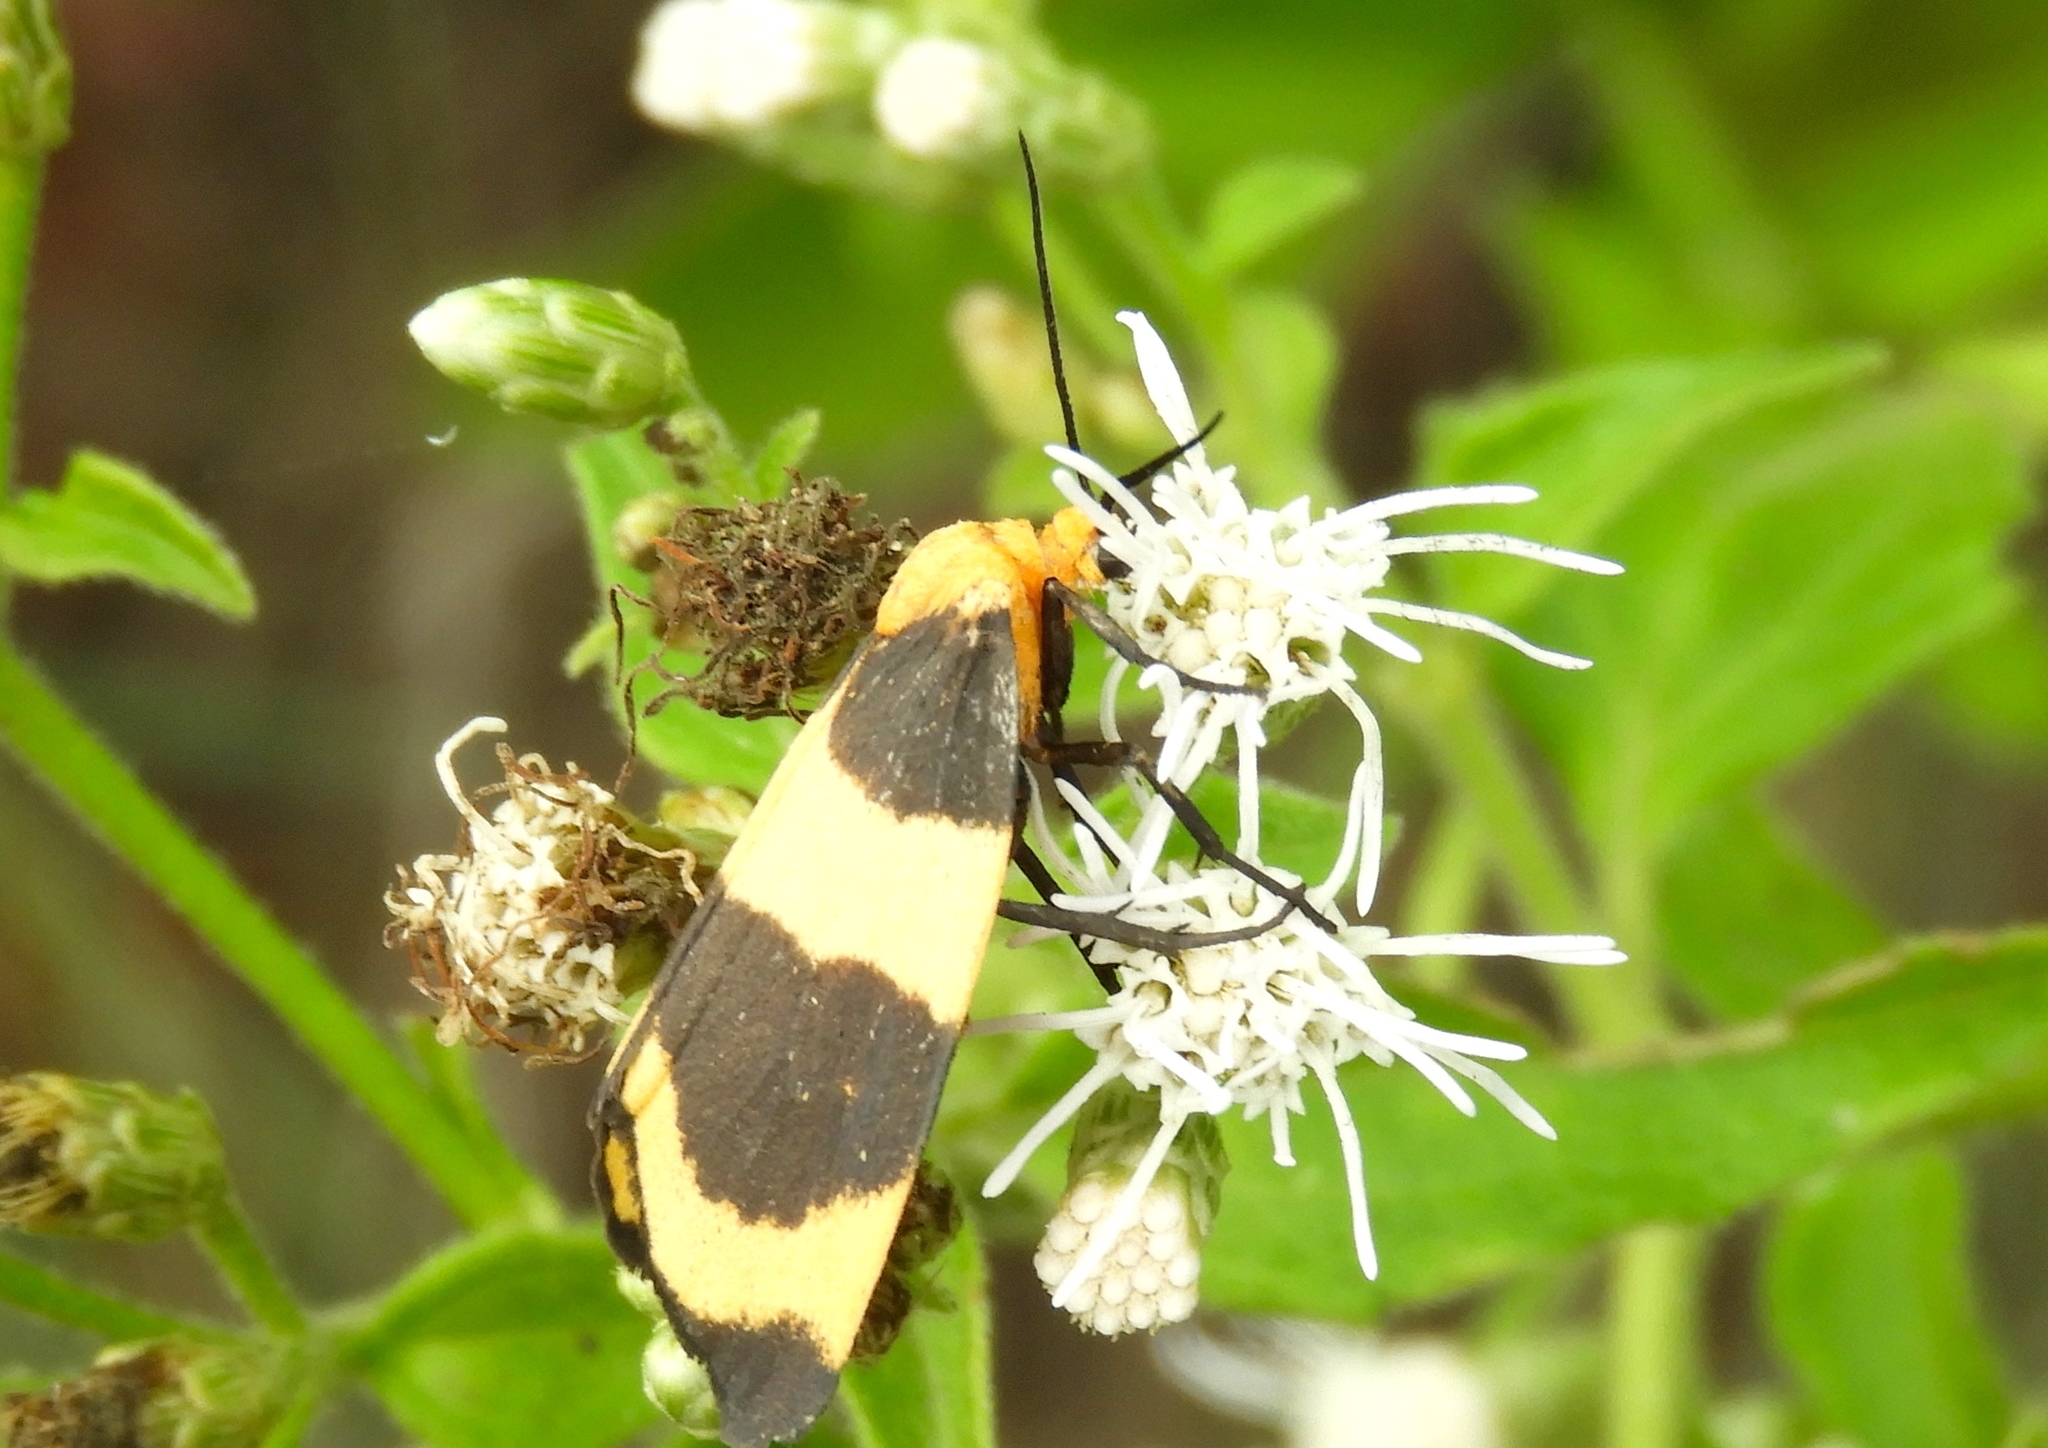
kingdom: Animalia
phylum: Arthropoda
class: Insecta
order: Lepidoptera
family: Erebidae
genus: Eudesmia
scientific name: Eudesmia menea
